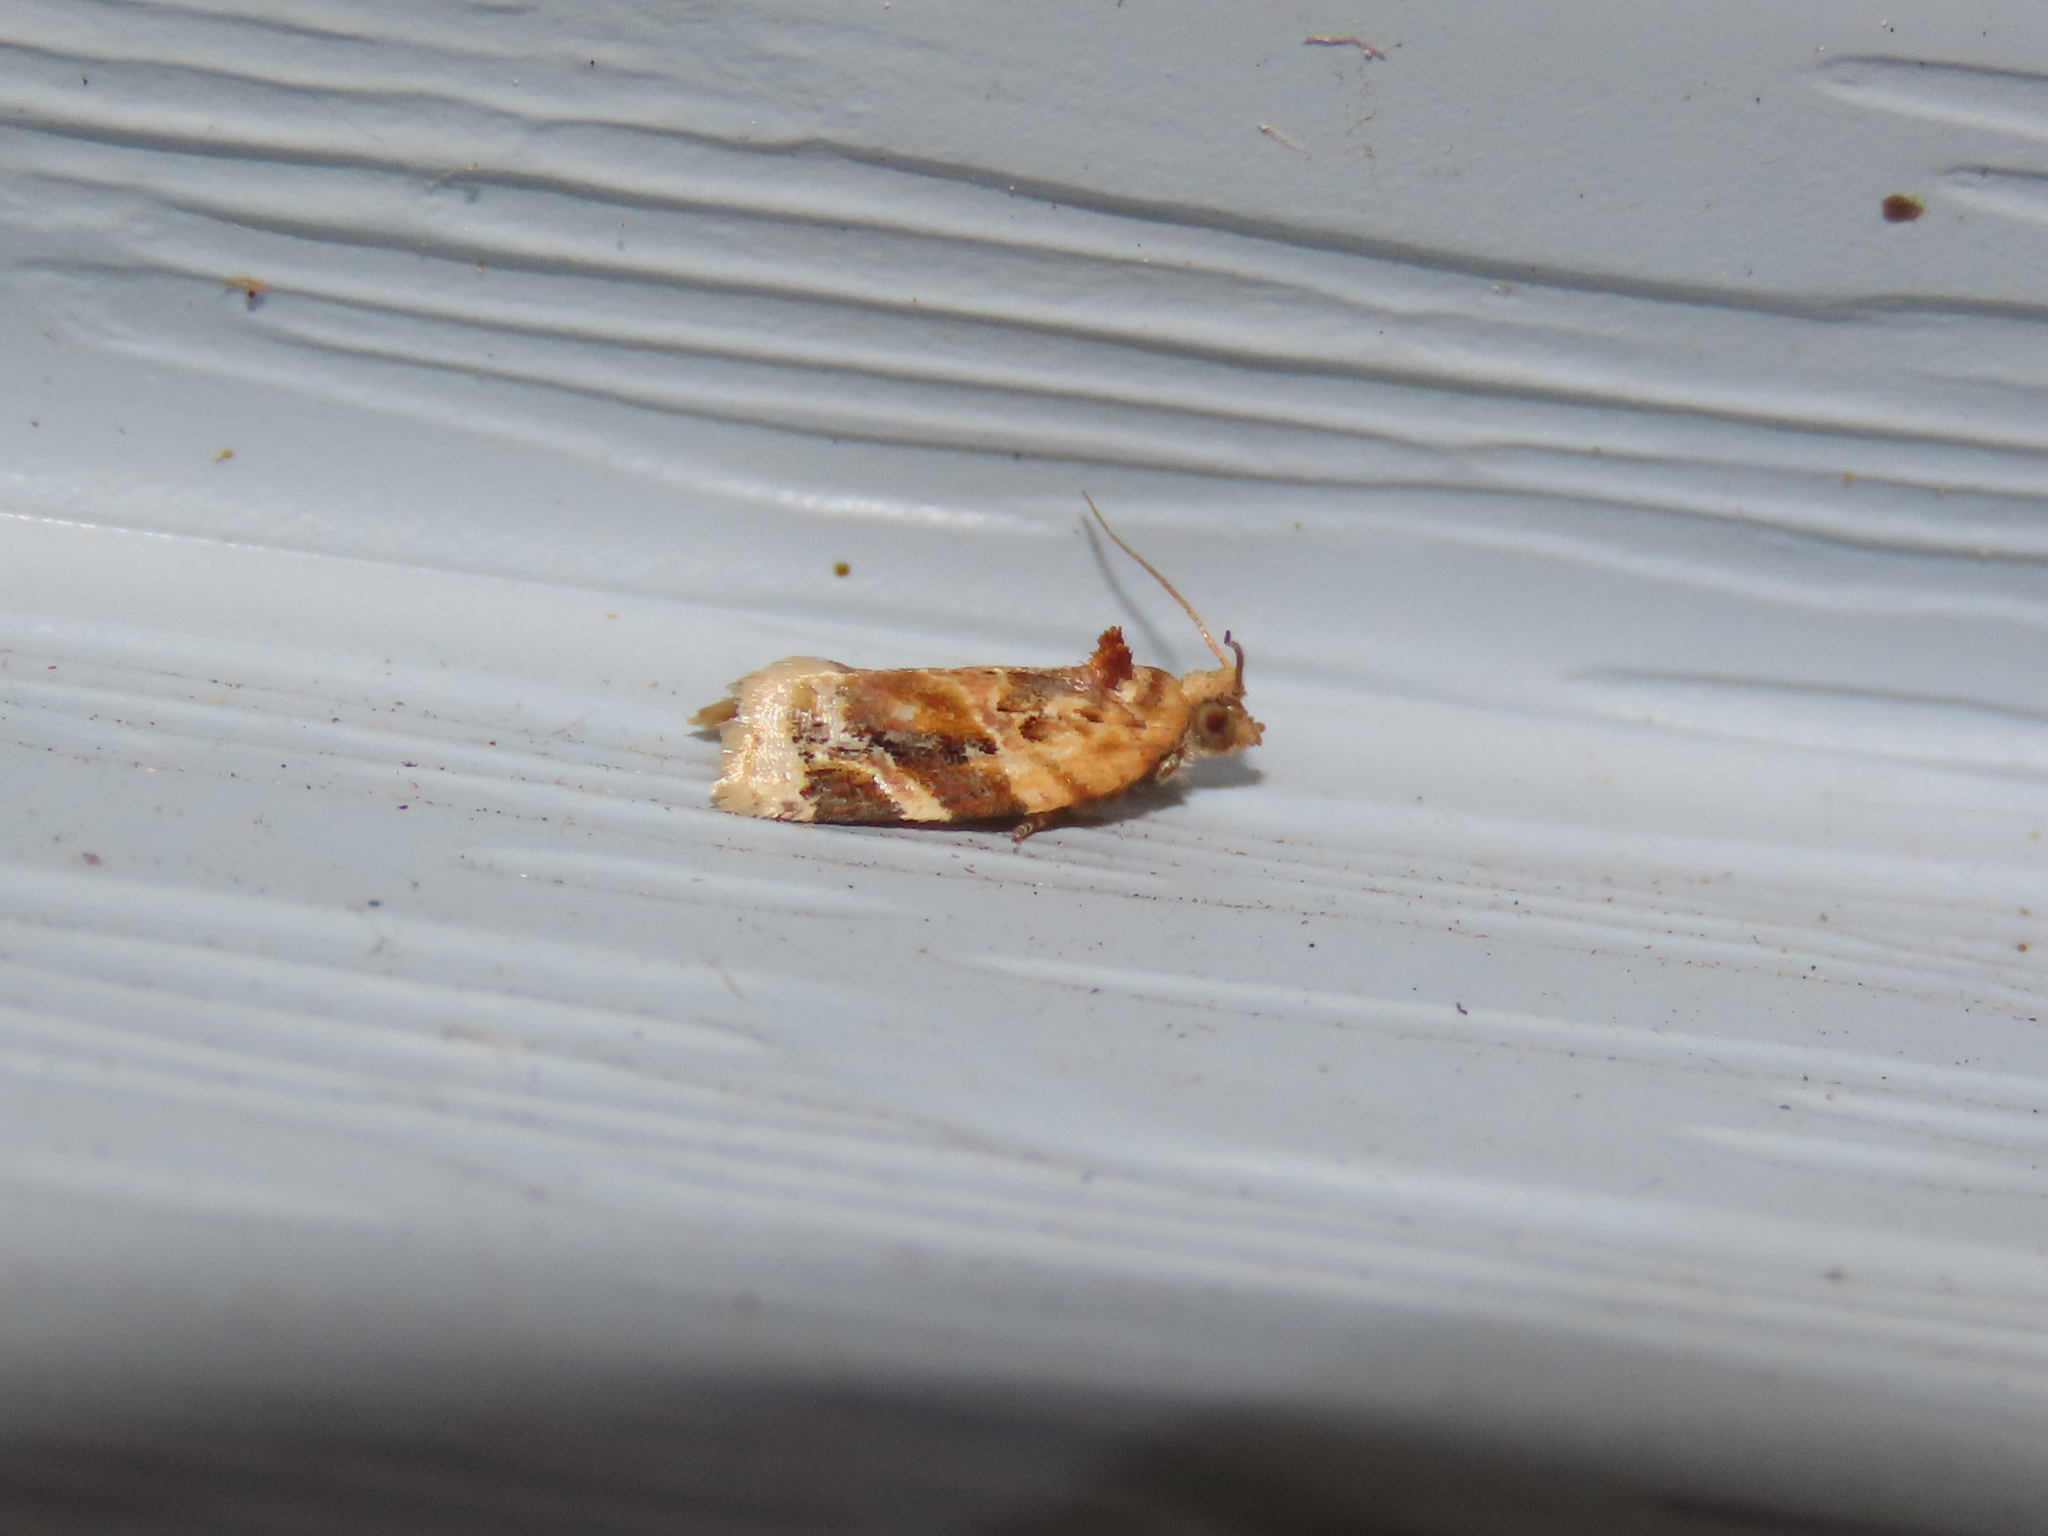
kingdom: Animalia
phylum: Arthropoda
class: Insecta
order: Lepidoptera
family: Tortricidae
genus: Argyrotaenia
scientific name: Argyrotaenia velutinana
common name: Red-banded leafroller moth
